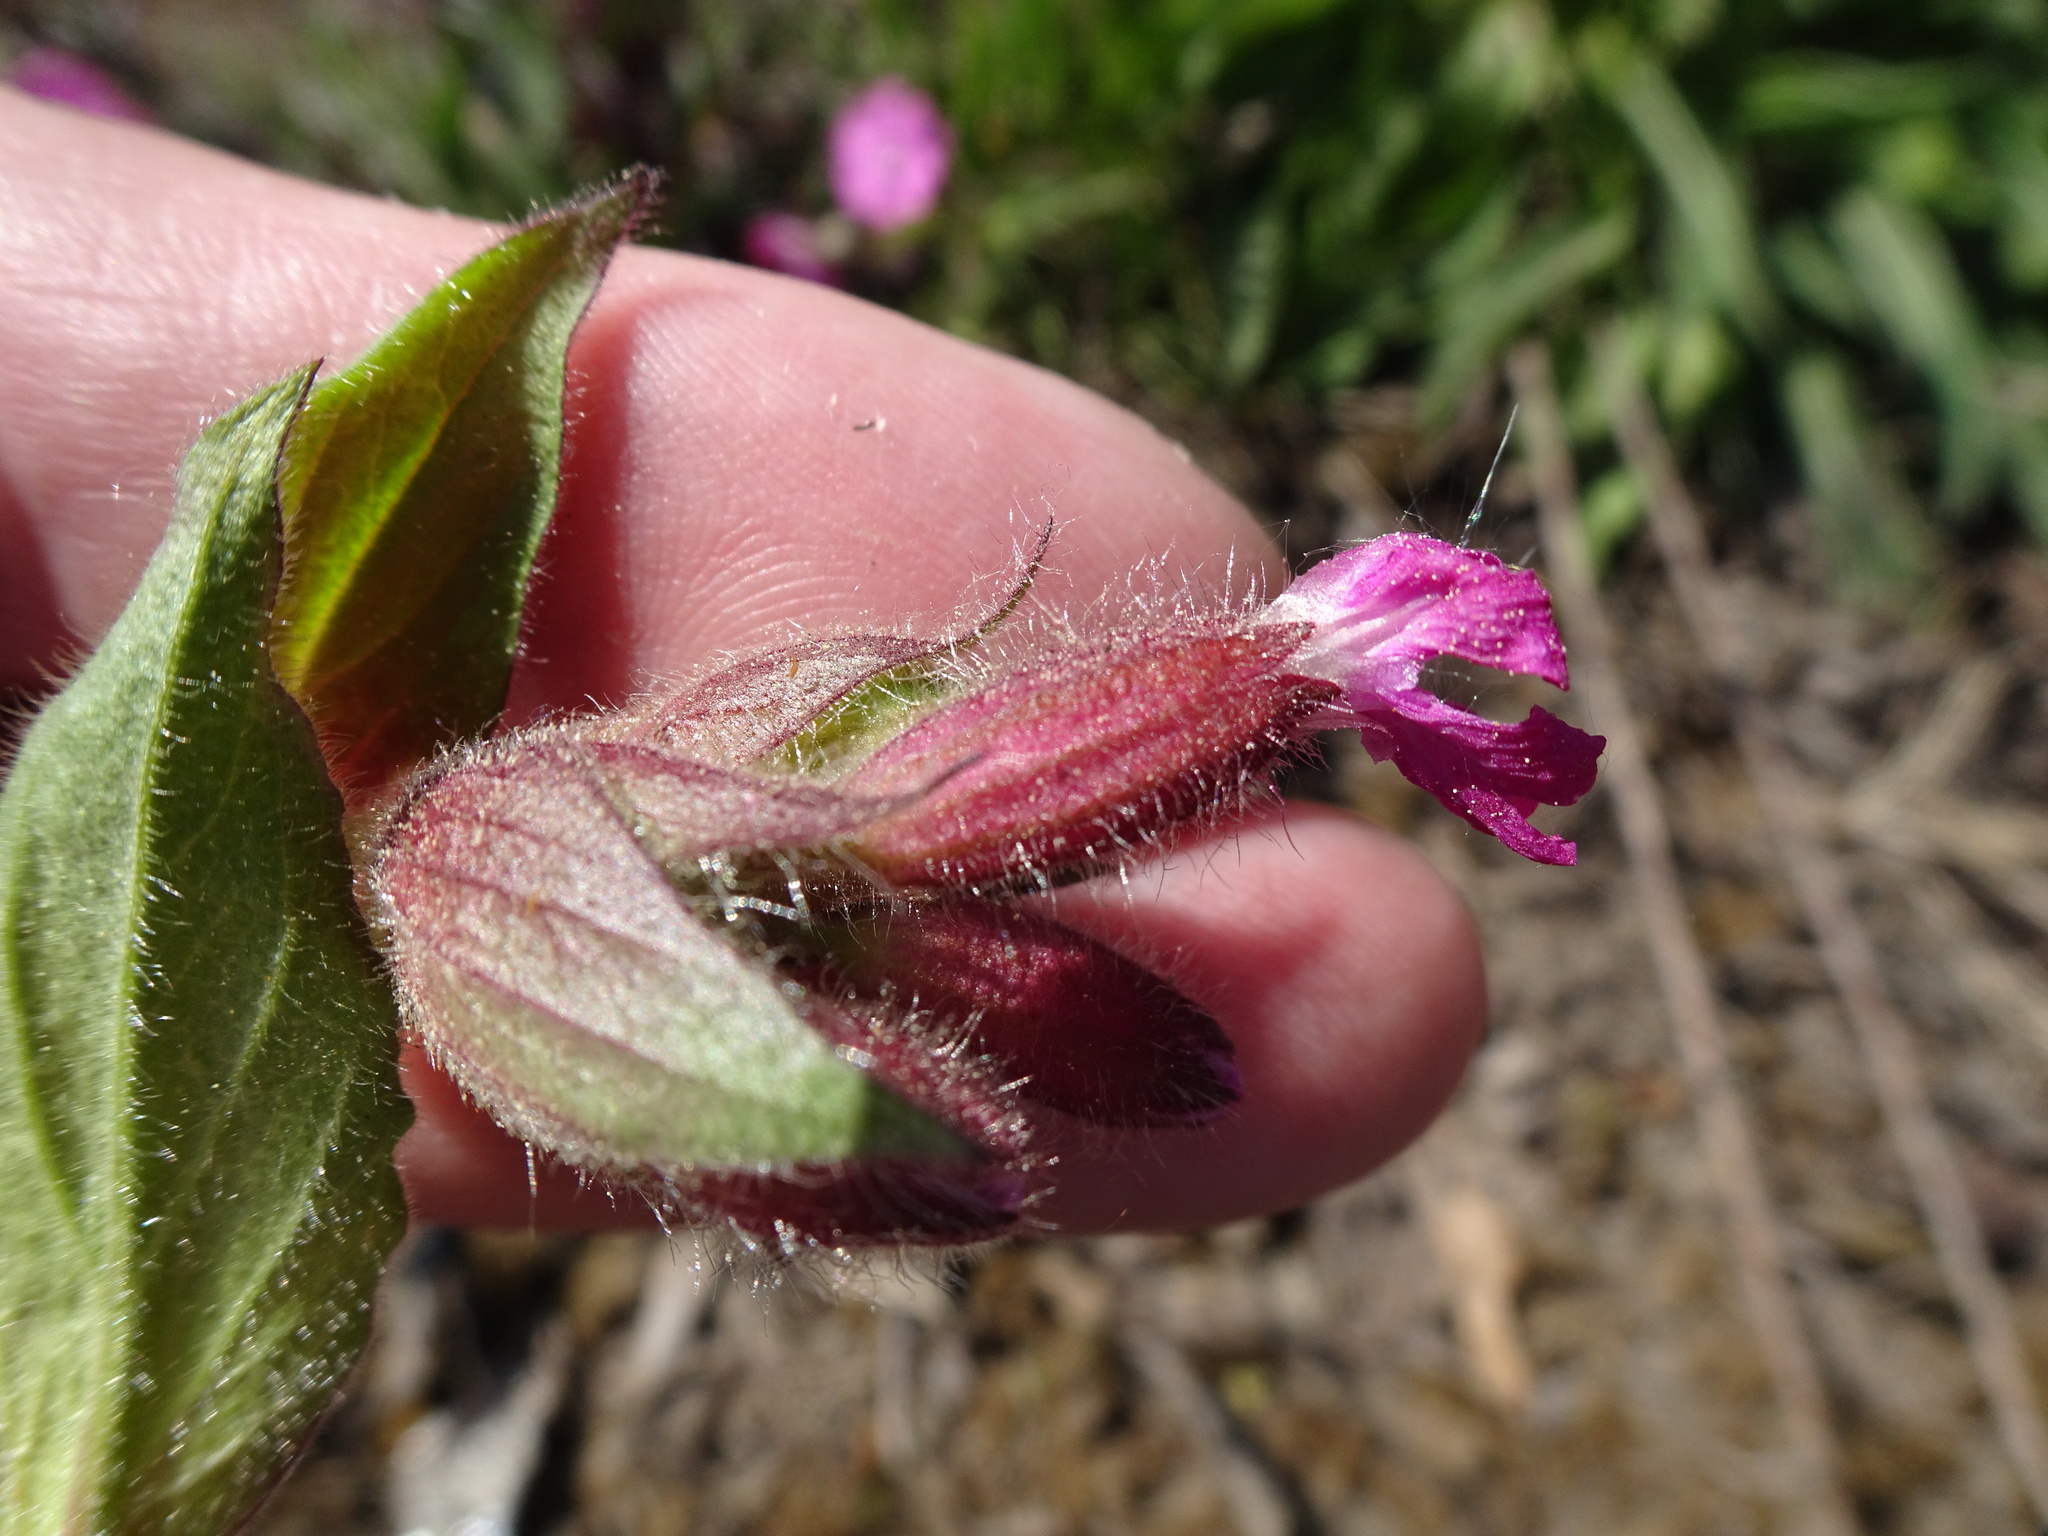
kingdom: Plantae
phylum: Tracheophyta
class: Magnoliopsida
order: Caryophyllales
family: Caryophyllaceae
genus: Silene
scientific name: Silene dioica
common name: Red campion
